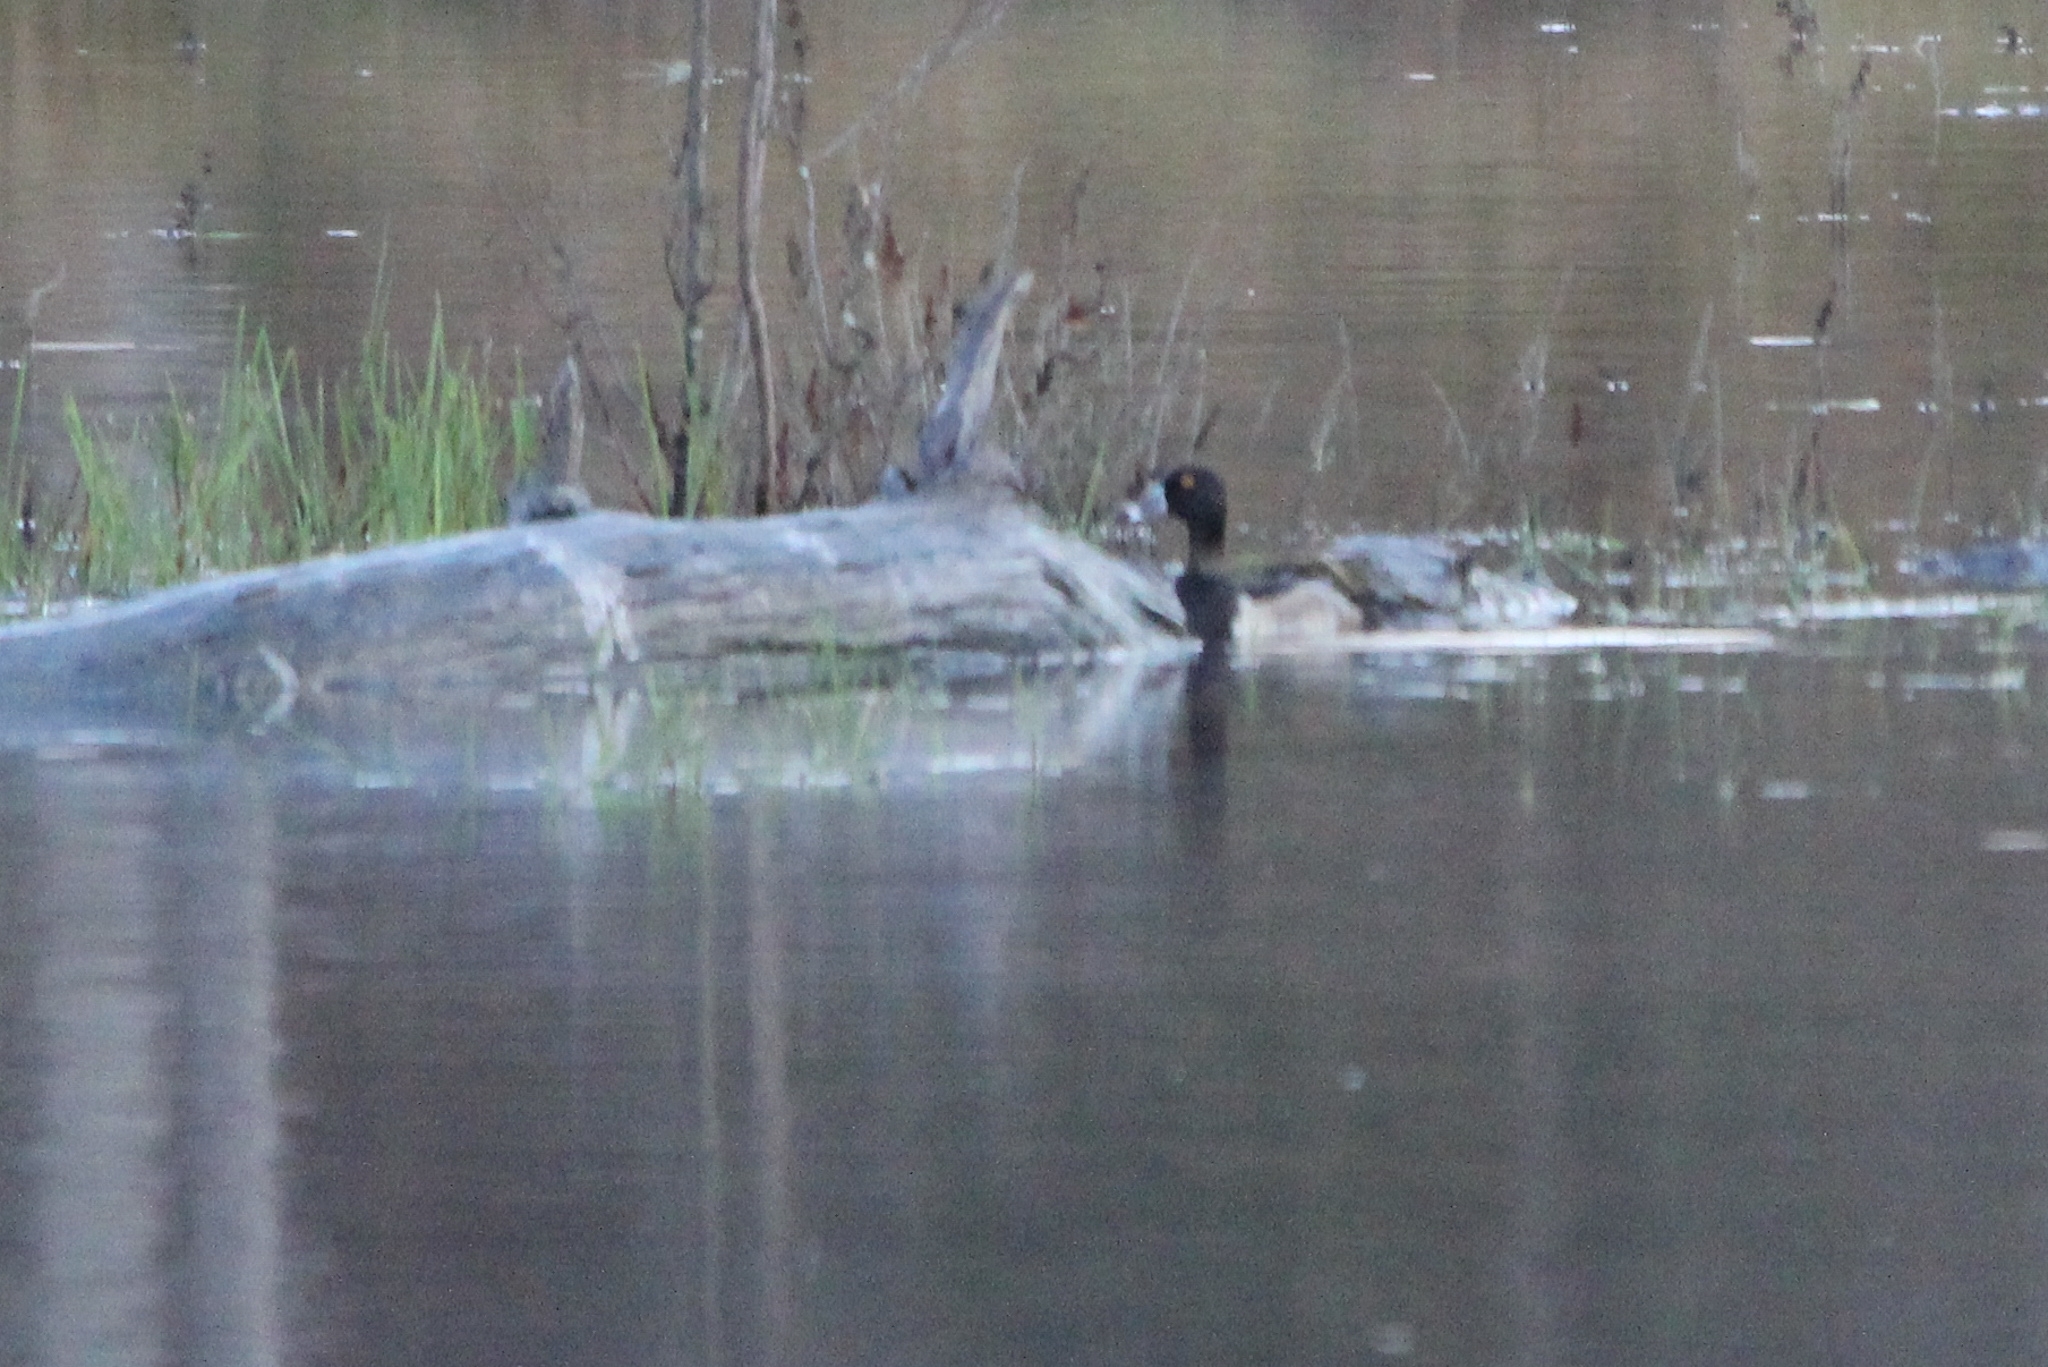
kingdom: Animalia
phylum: Chordata
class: Aves
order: Anseriformes
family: Anatidae
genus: Aythya
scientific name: Aythya collaris
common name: Ring-necked duck
